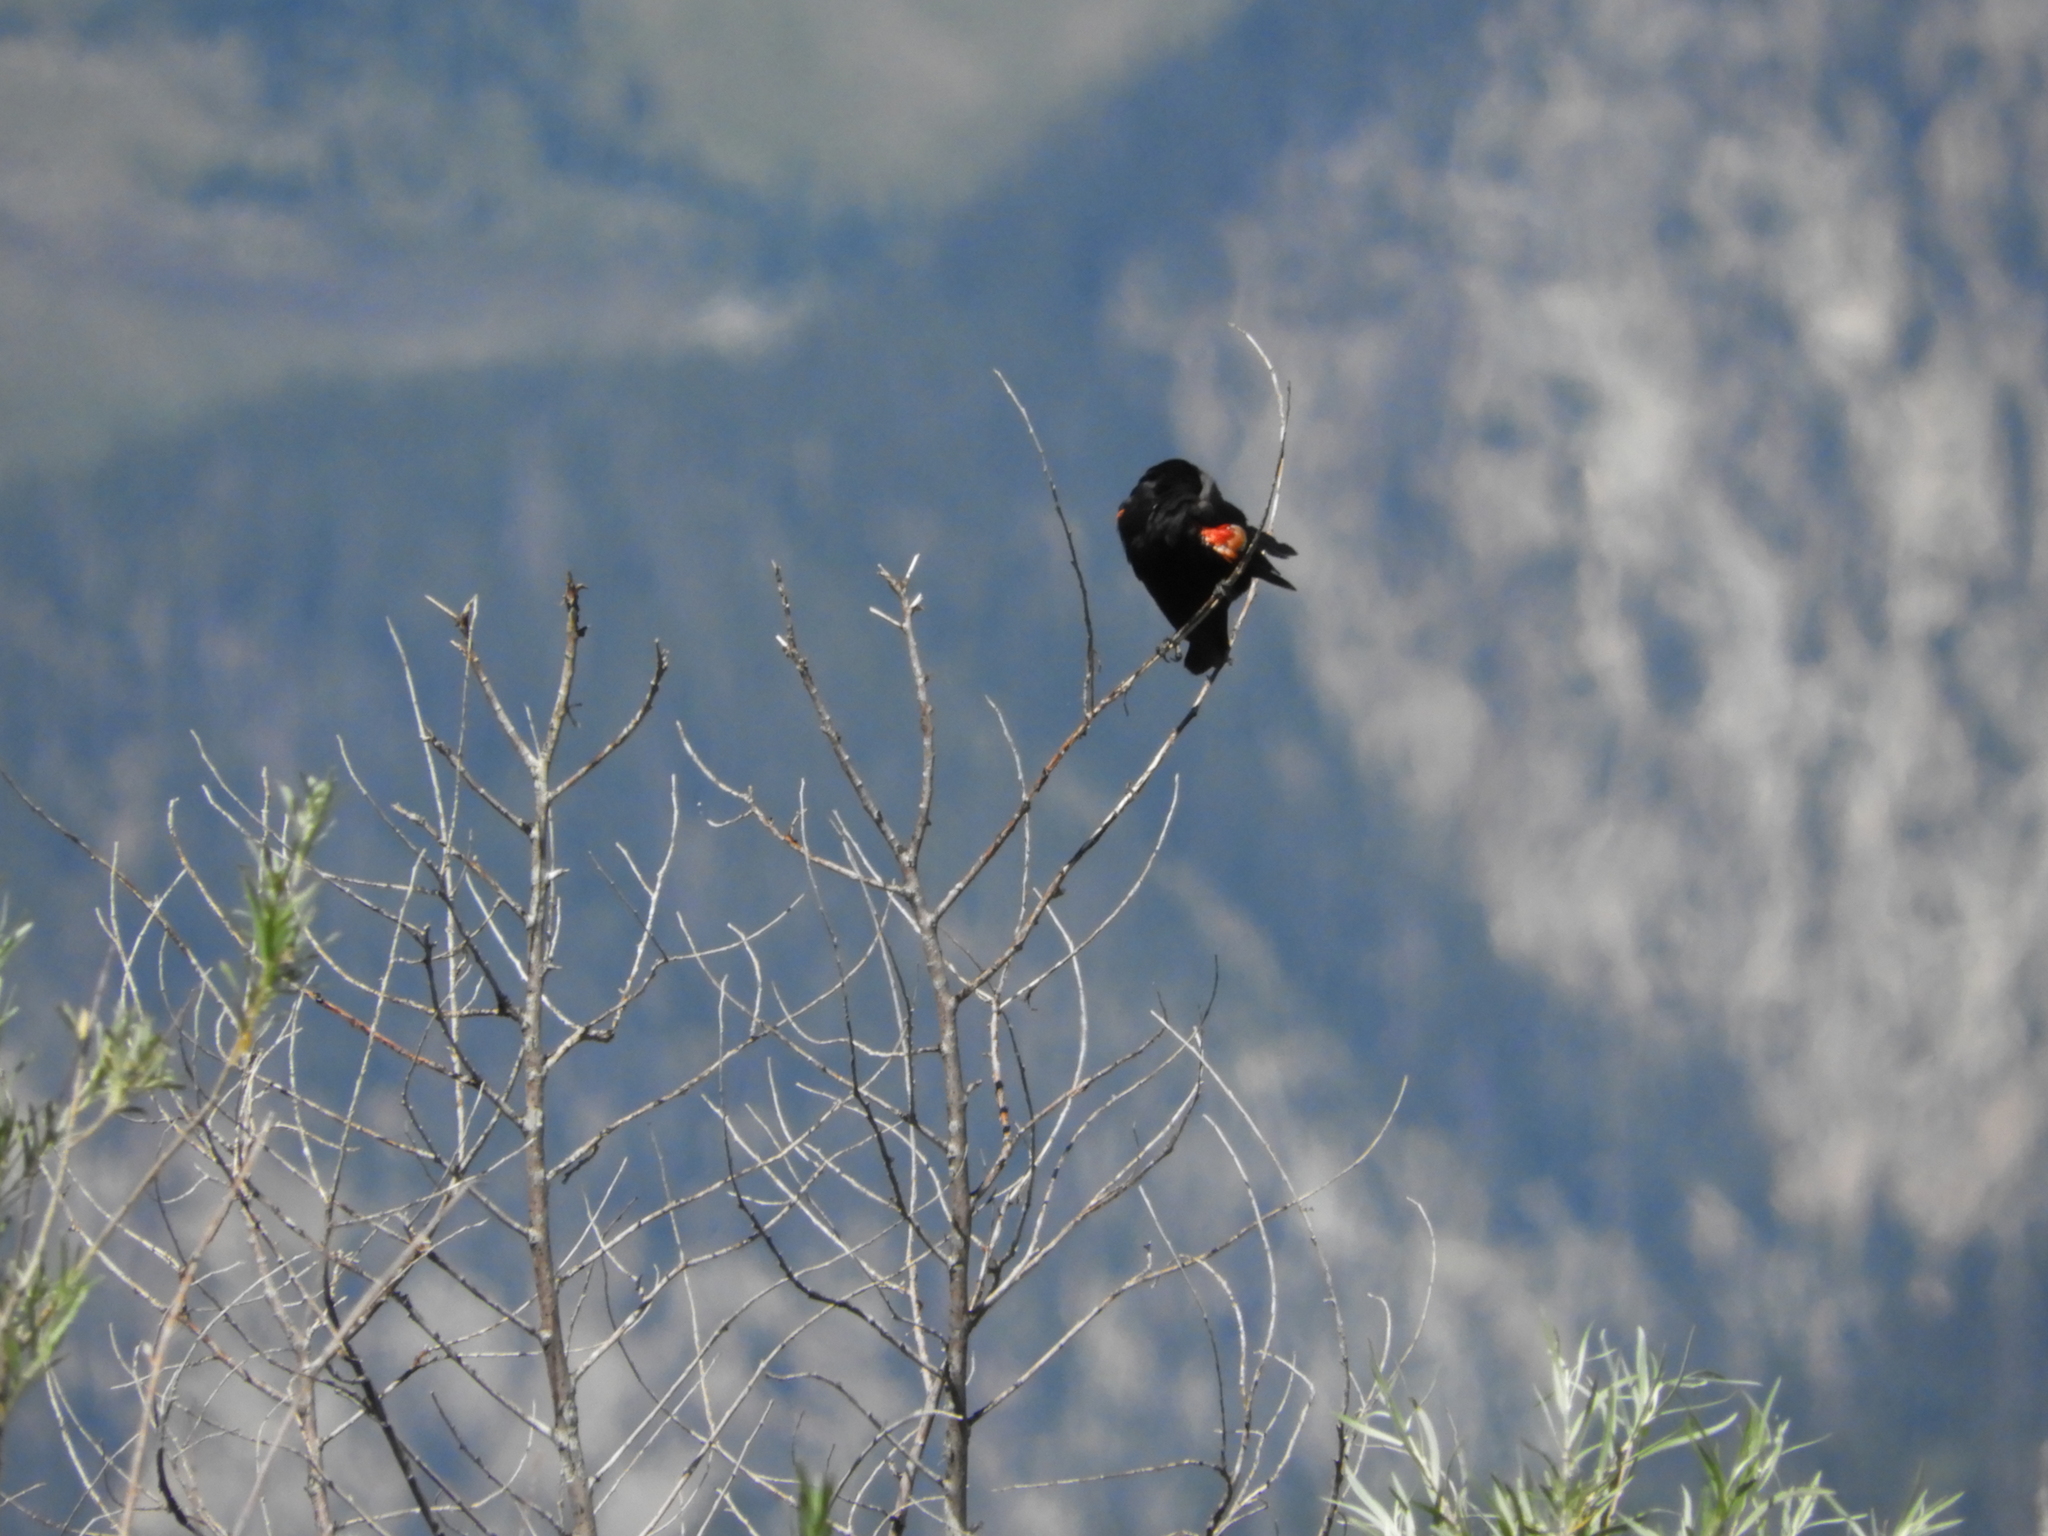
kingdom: Animalia
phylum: Chordata
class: Aves
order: Passeriformes
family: Icteridae
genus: Agelaius
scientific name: Agelaius phoeniceus
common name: Red-winged blackbird
